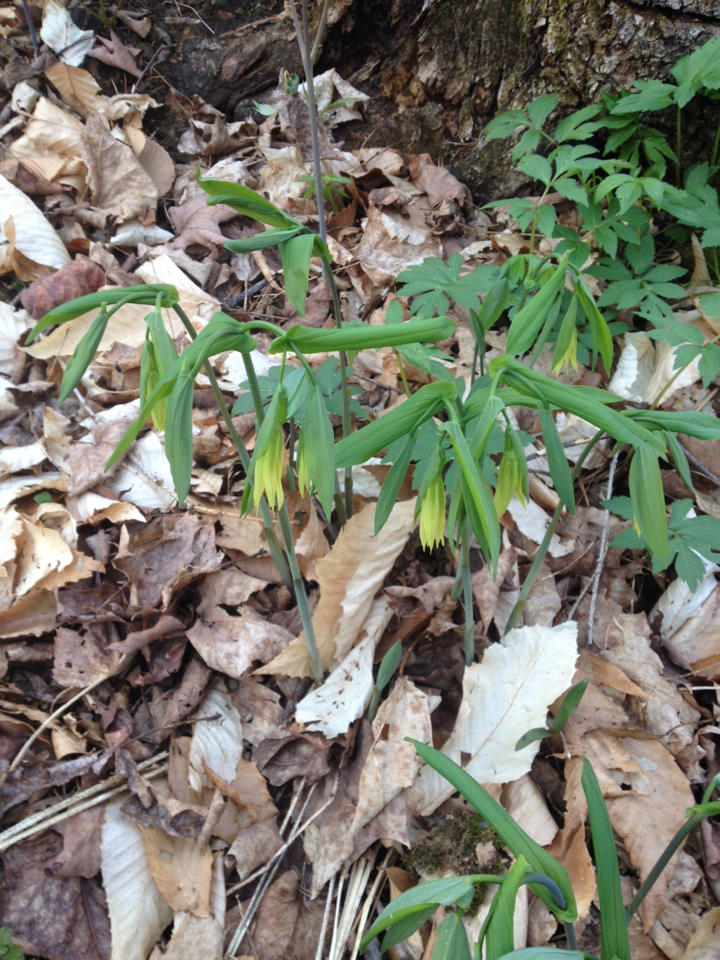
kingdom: Plantae
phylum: Tracheophyta
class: Liliopsida
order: Liliales
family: Colchicaceae
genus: Uvularia
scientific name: Uvularia grandiflora
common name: Bellwort
